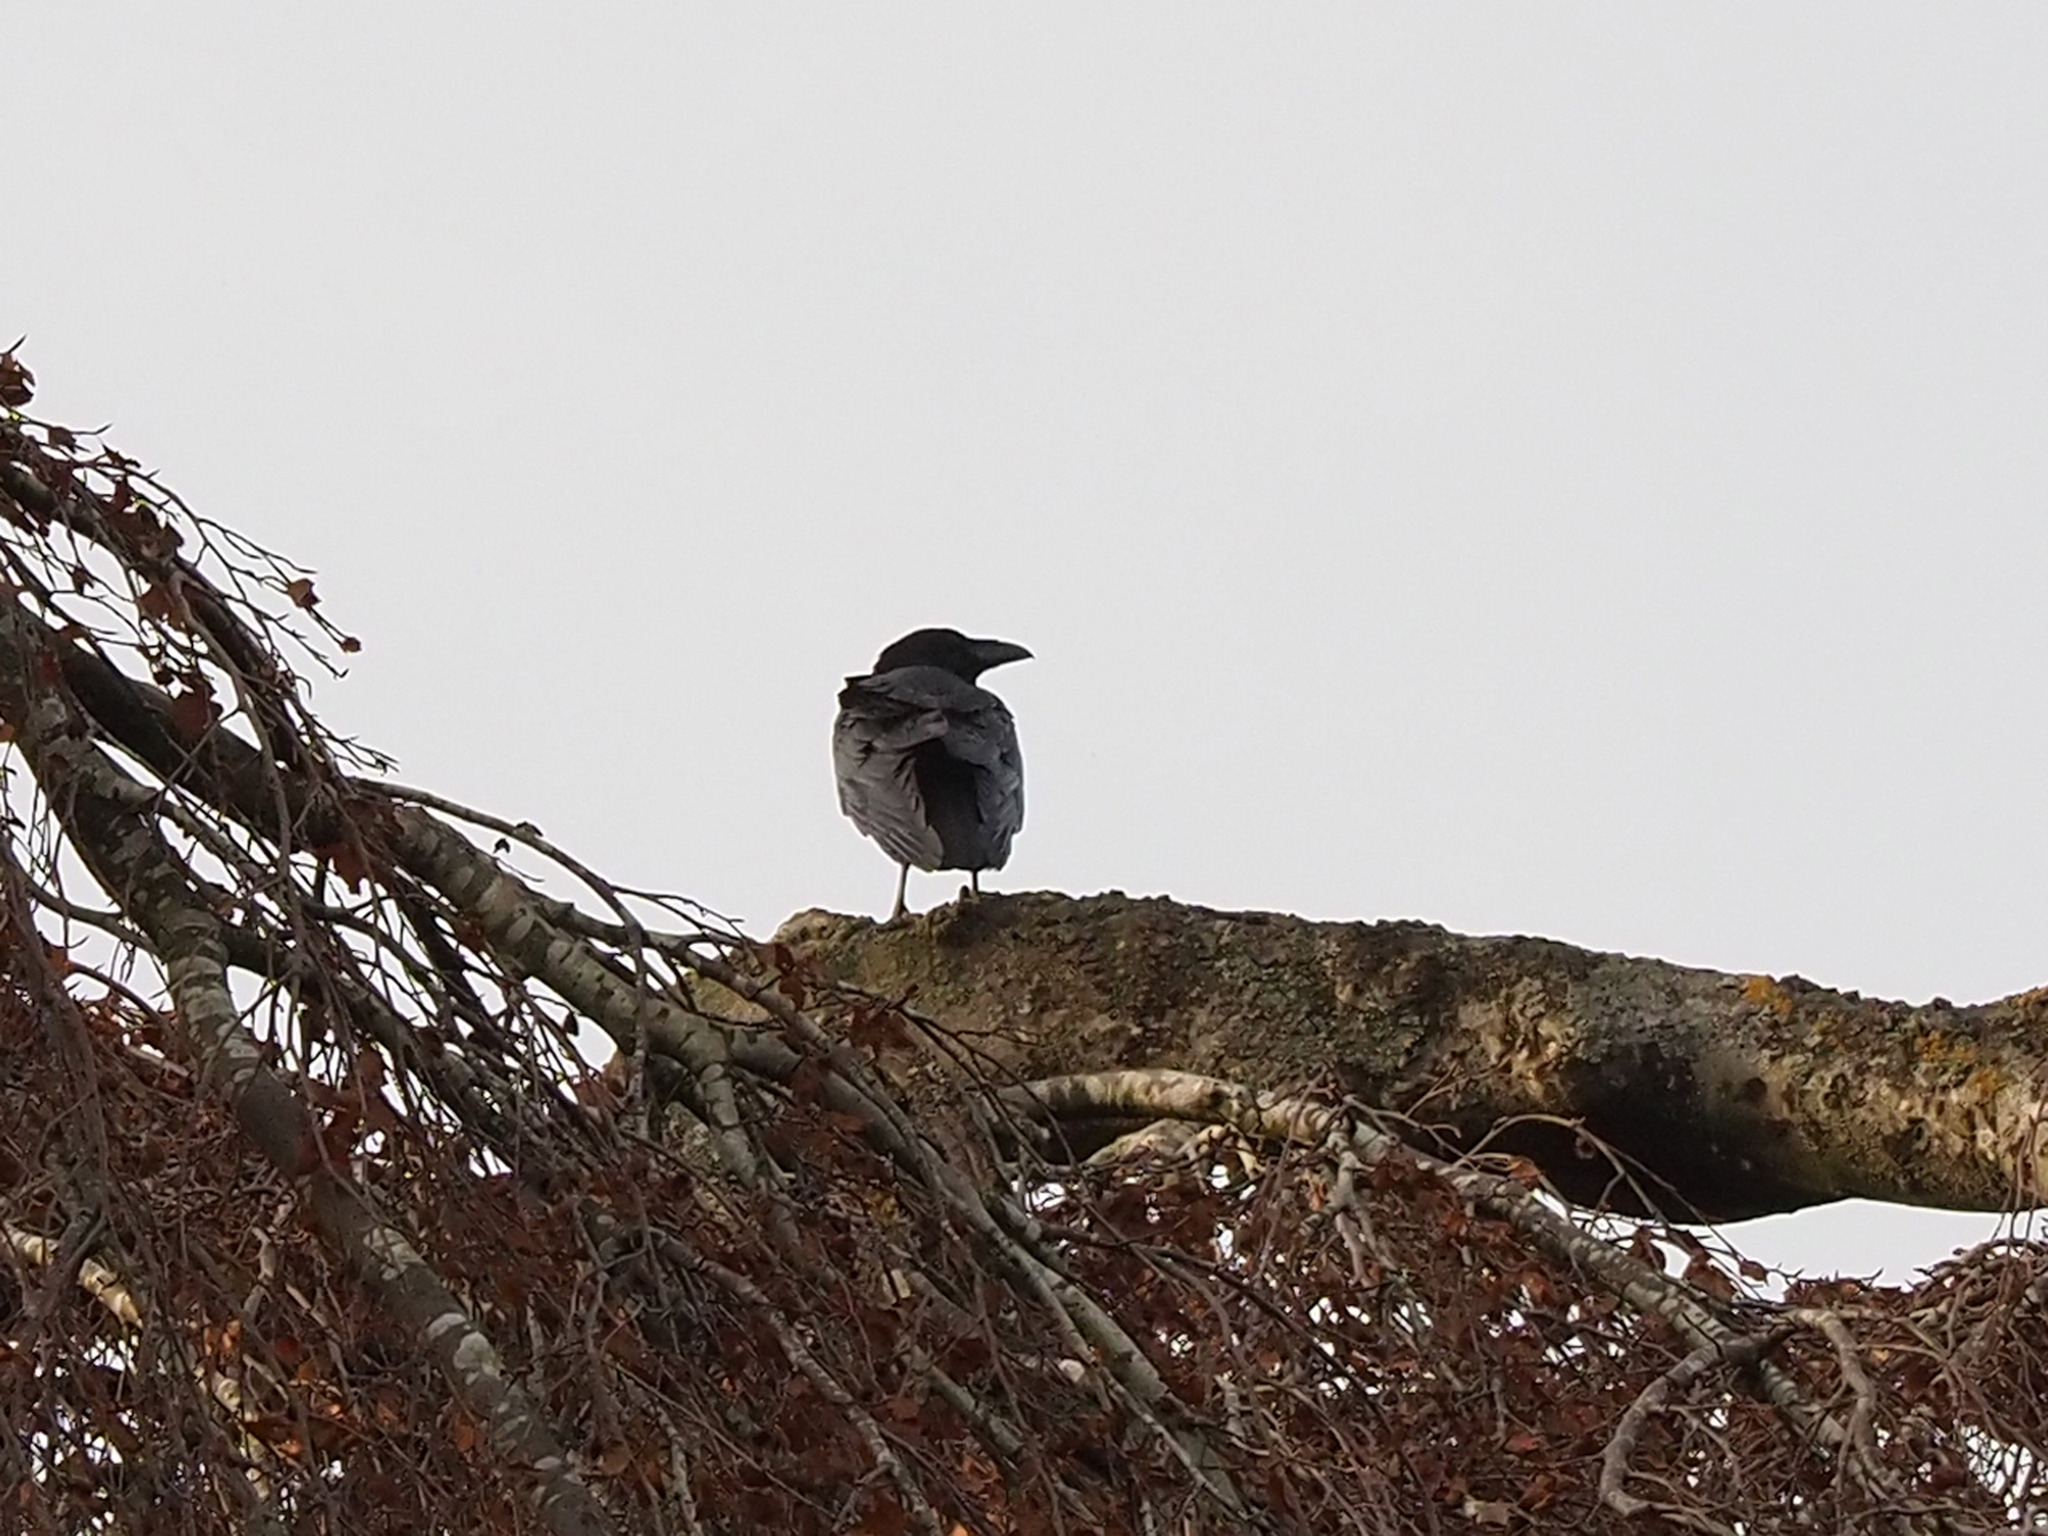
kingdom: Animalia
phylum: Chordata
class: Aves
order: Passeriformes
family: Corvidae
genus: Corvus
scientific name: Corvus corax
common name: Common raven
